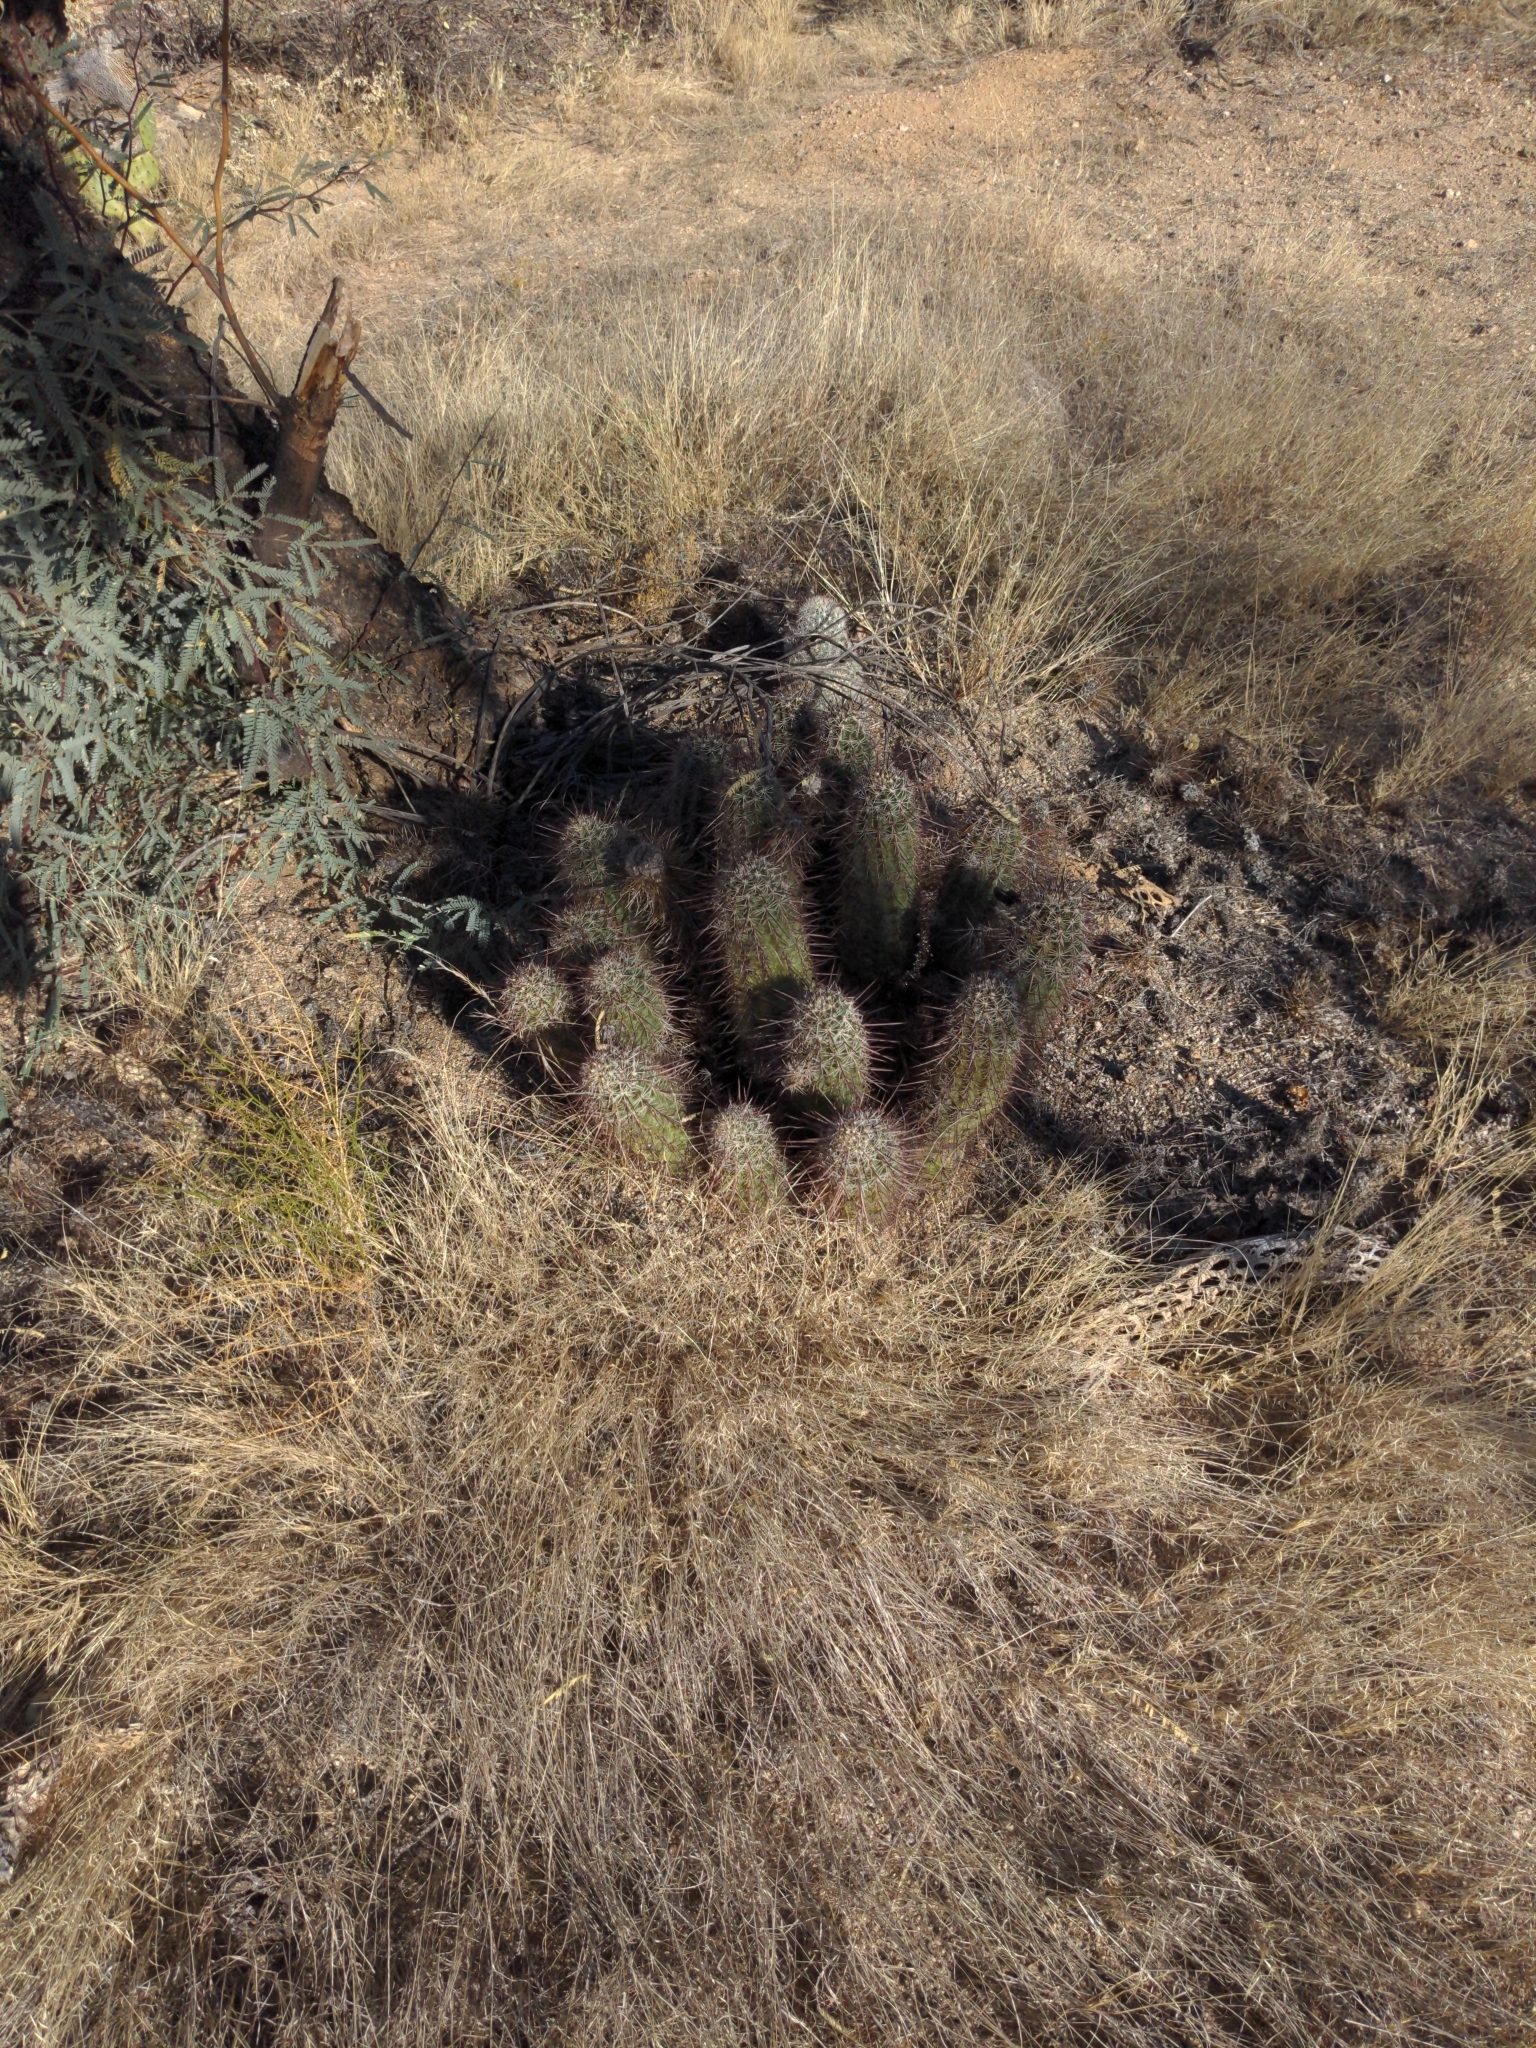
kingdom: Plantae
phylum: Tracheophyta
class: Magnoliopsida
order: Caryophyllales
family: Cactaceae
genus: Echinocereus
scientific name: Echinocereus engelmannii
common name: Engelmann's hedgehog cactus
